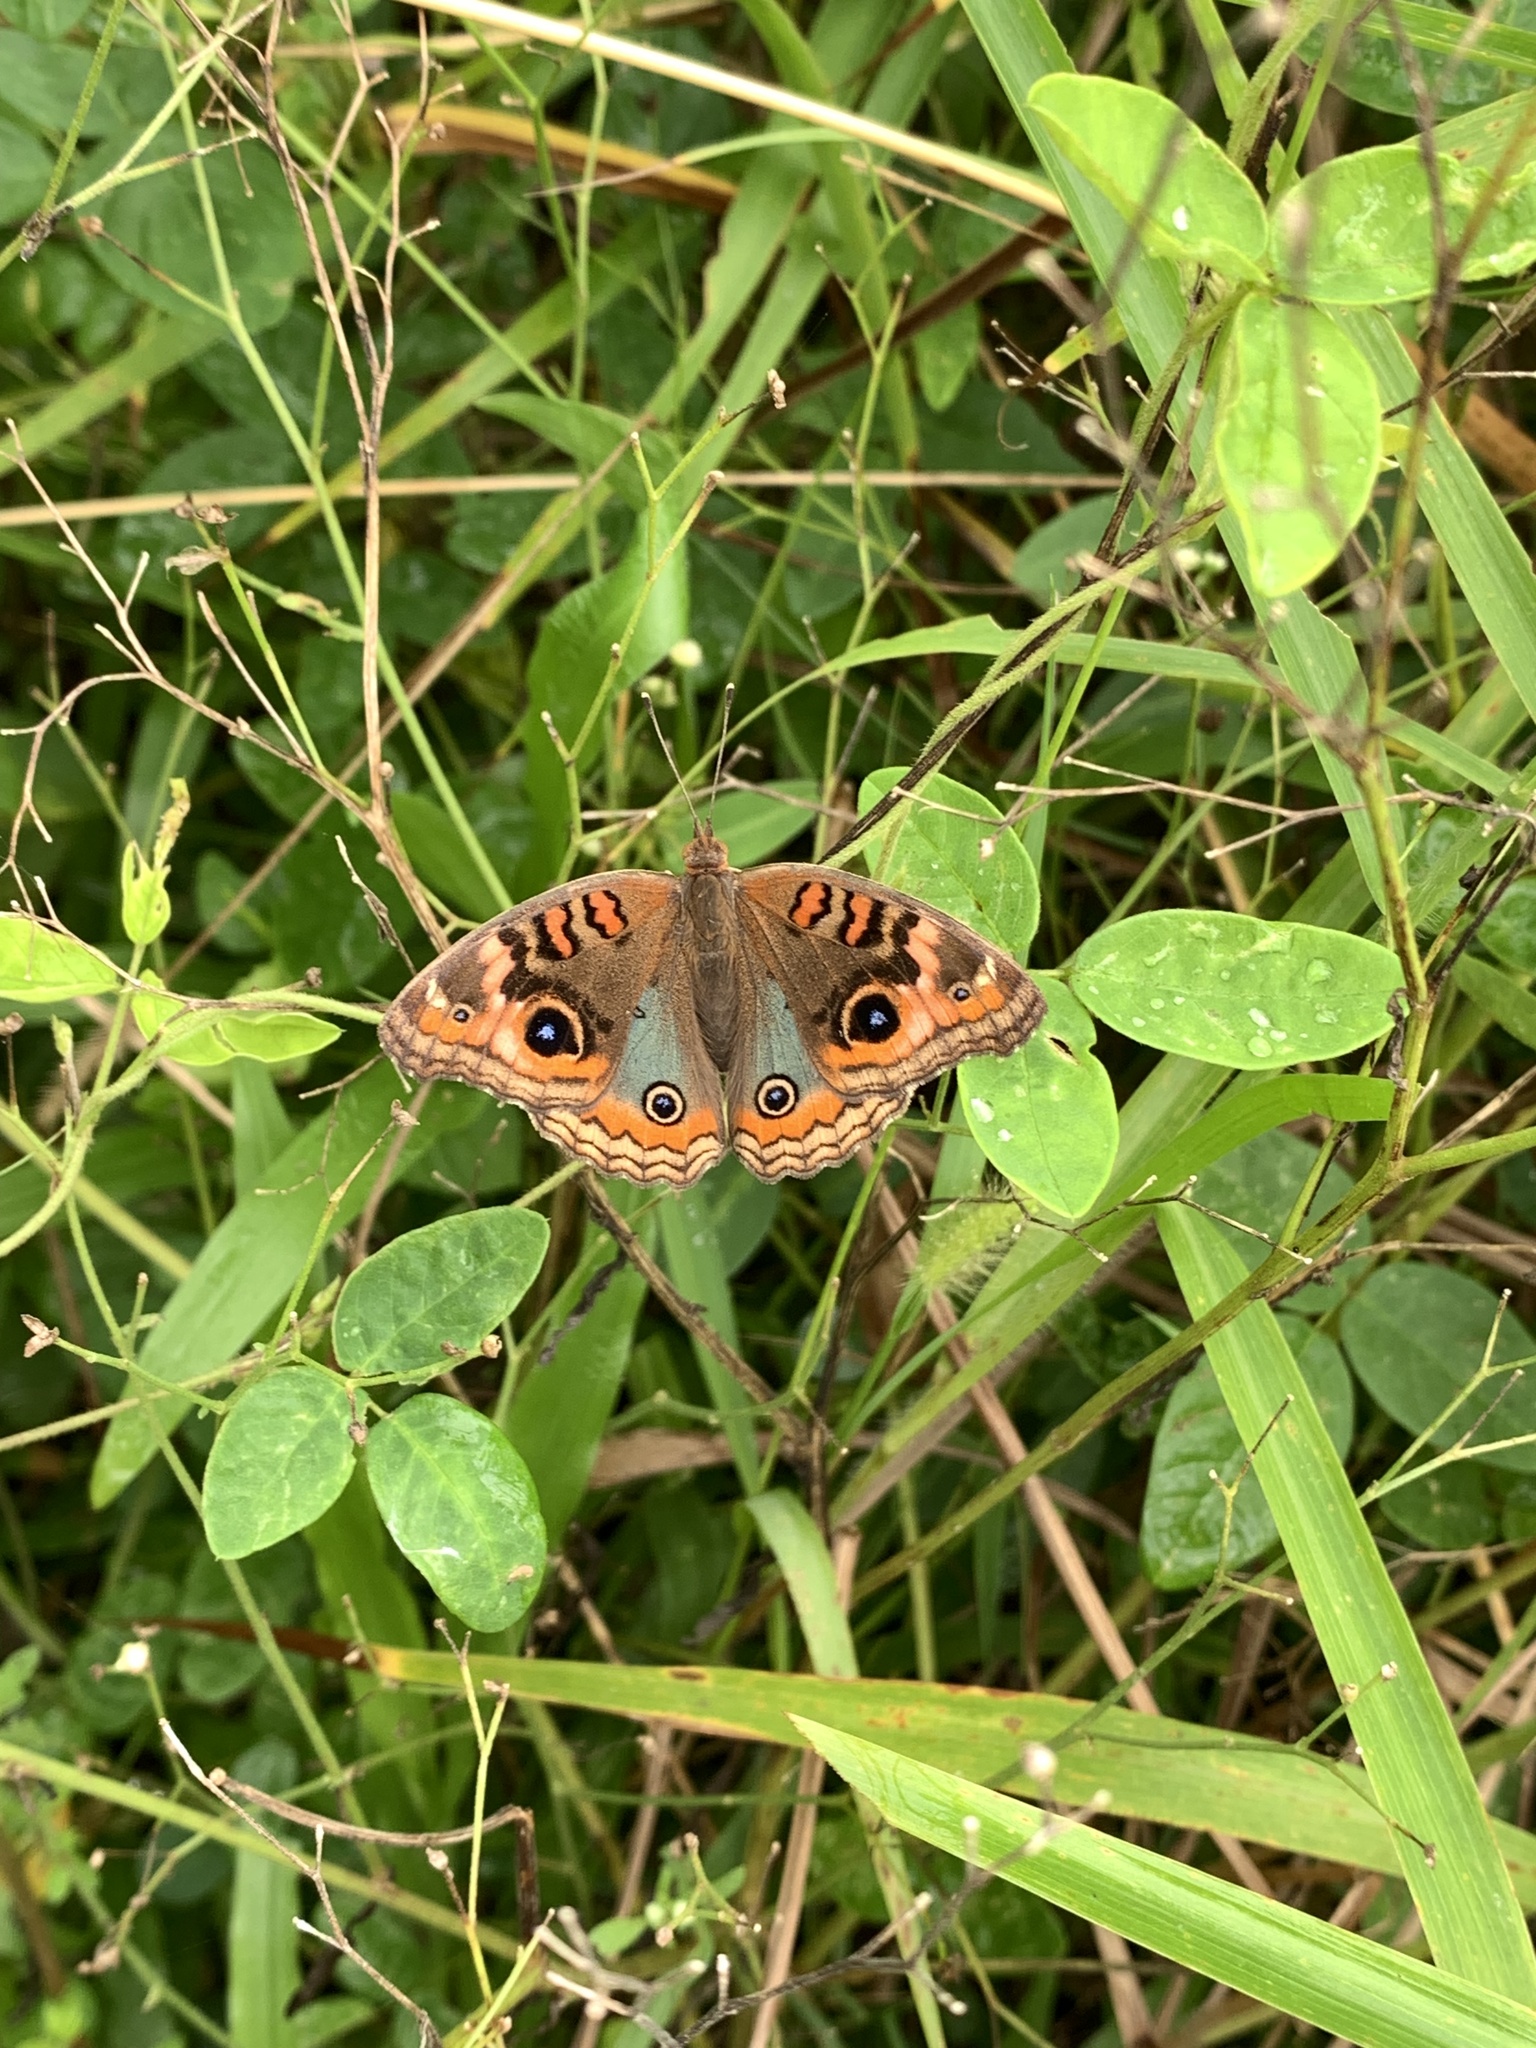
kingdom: Animalia
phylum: Arthropoda
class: Insecta
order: Lepidoptera
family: Nymphalidae
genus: Junonia
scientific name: Junonia evarete
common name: Black mangrove buckeye
